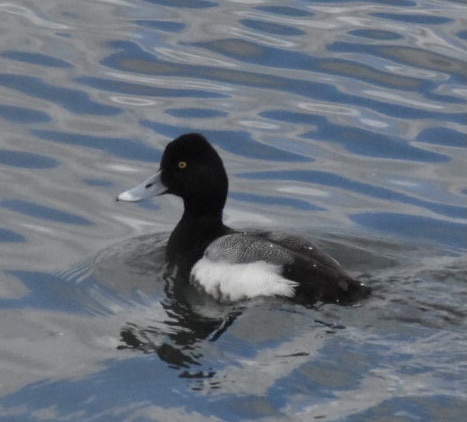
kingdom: Animalia
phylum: Chordata
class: Aves
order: Anseriformes
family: Anatidae
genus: Aythya
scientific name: Aythya affinis
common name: Lesser scaup
